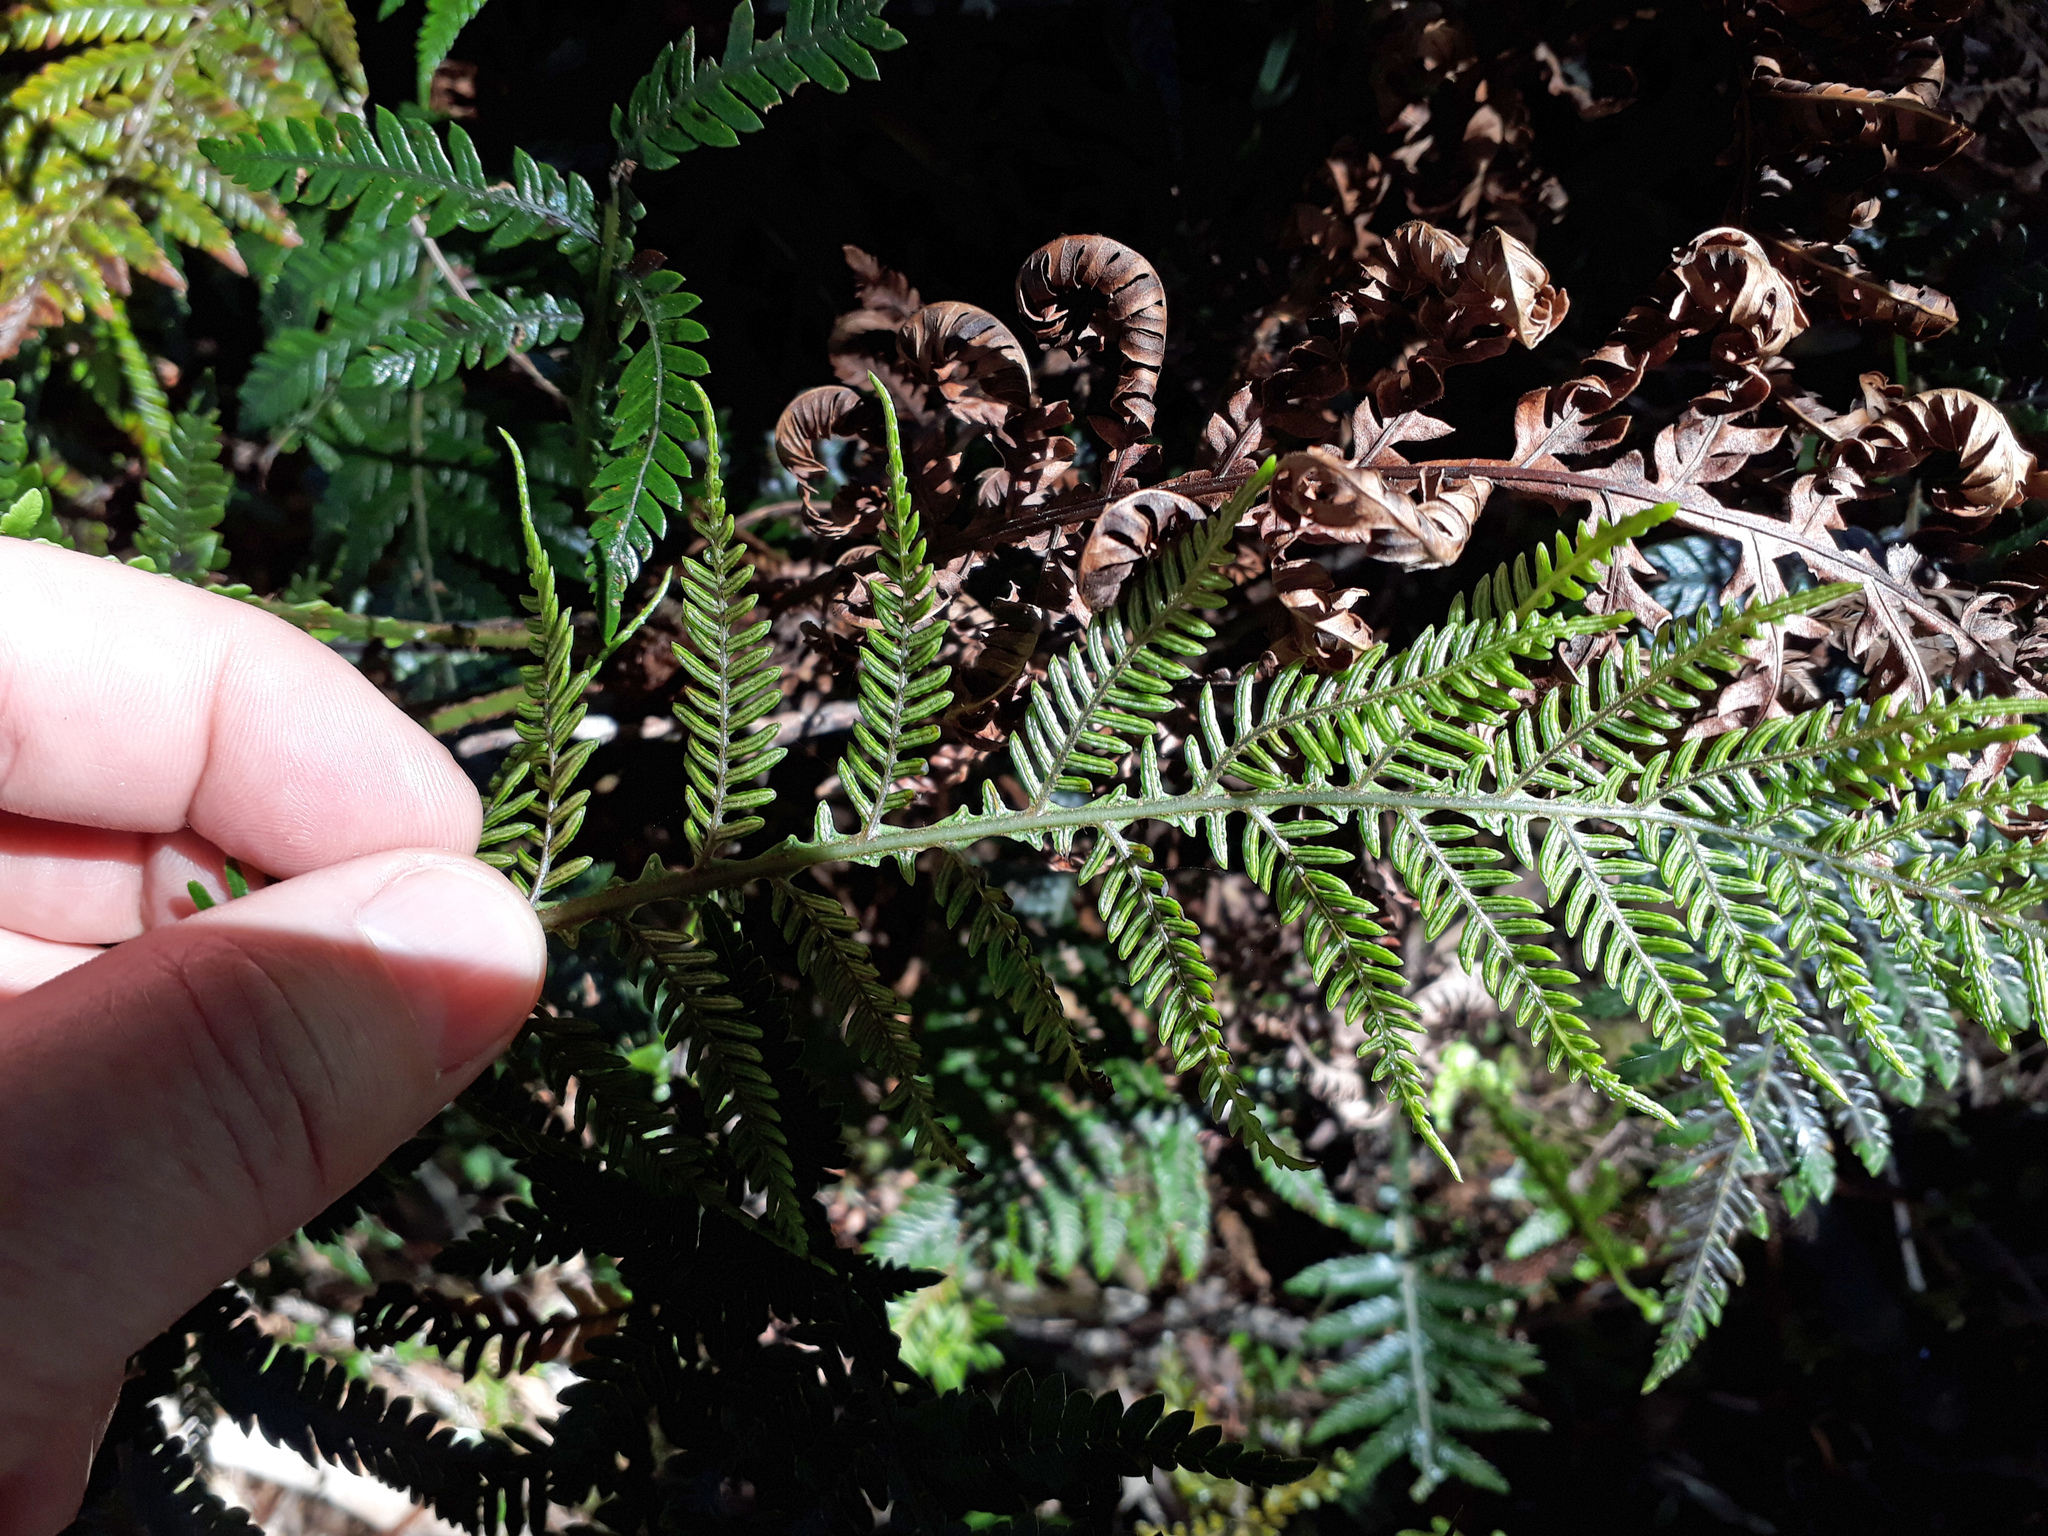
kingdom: Plantae
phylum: Tracheophyta
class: Polypodiopsida
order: Polypodiales
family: Blechnaceae
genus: Diploblechnum
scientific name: Diploblechnum fraseri
